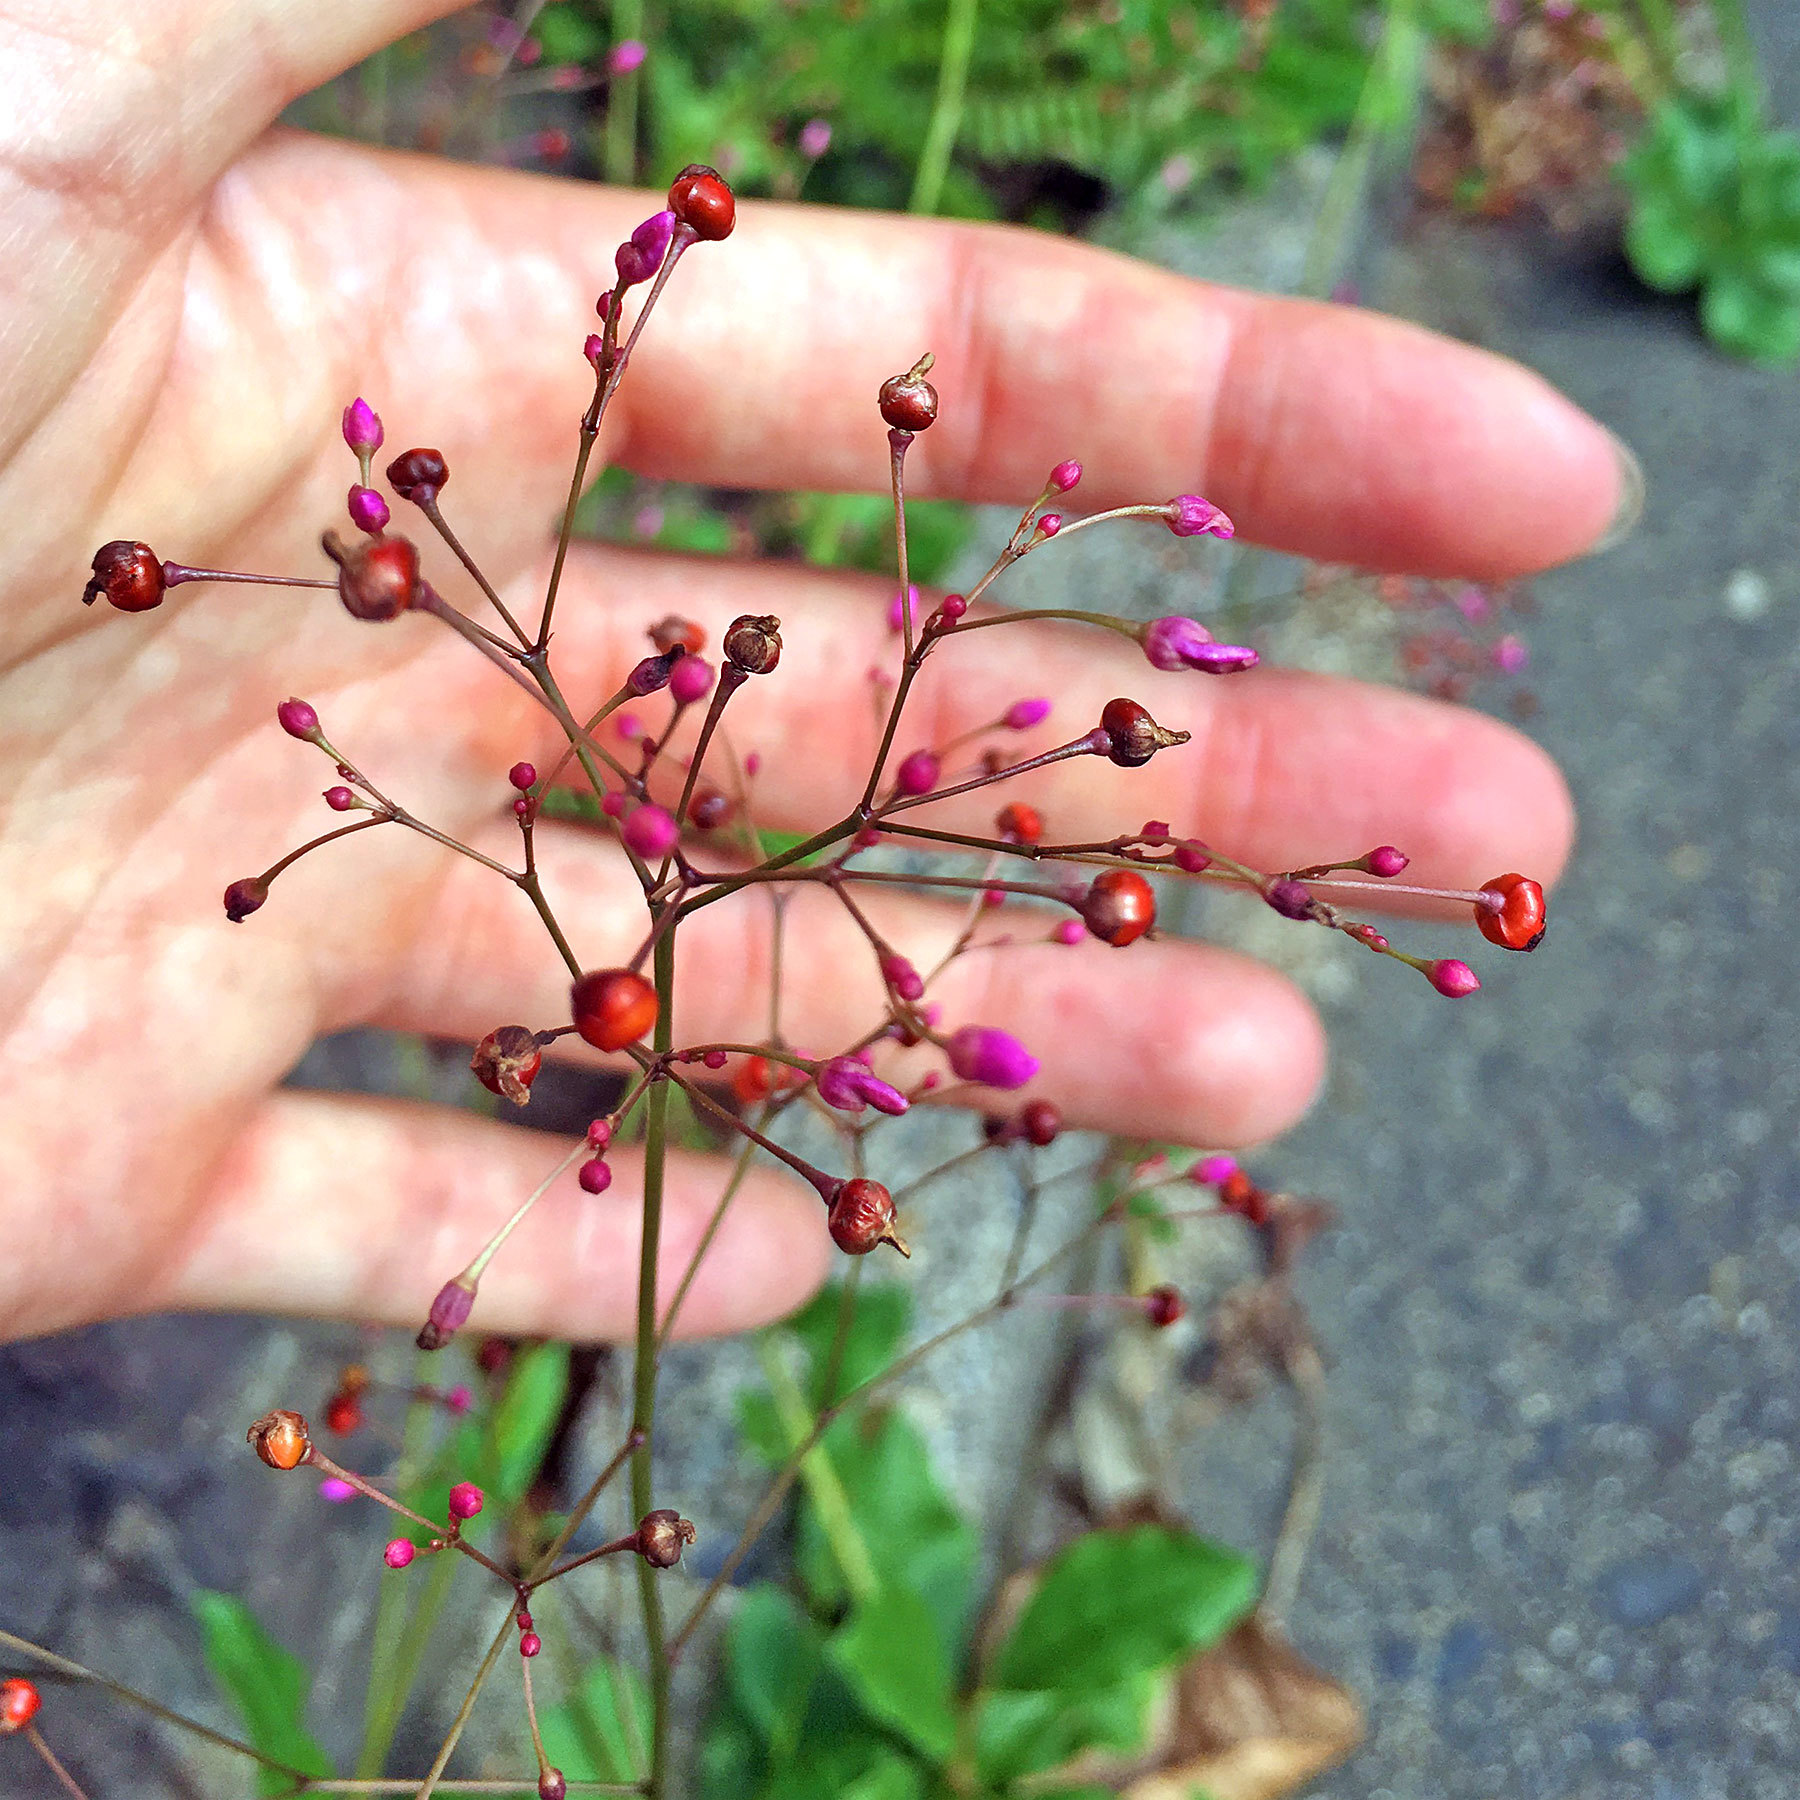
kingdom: Plantae
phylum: Tracheophyta
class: Magnoliopsida
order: Caryophyllales
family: Talinaceae
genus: Talinum
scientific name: Talinum paniculatum
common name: Jewels of opar
